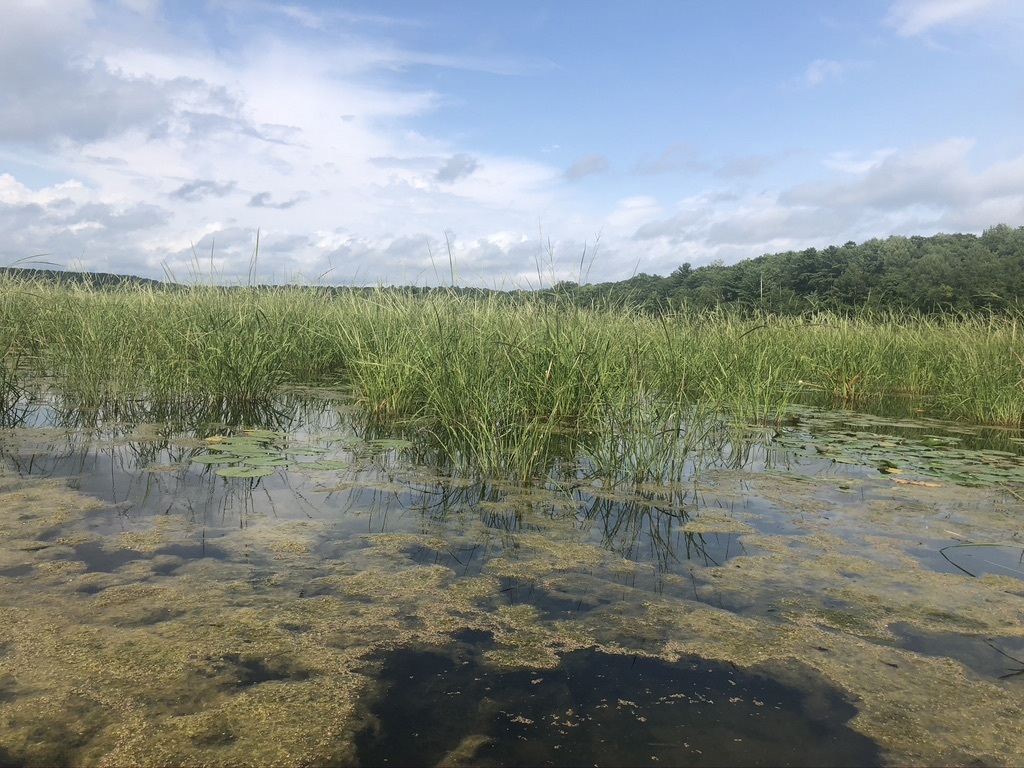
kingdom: Plantae
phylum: Tracheophyta
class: Liliopsida
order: Poales
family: Poaceae
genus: Zizania
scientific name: Zizania palustris
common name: Northern wild rice
